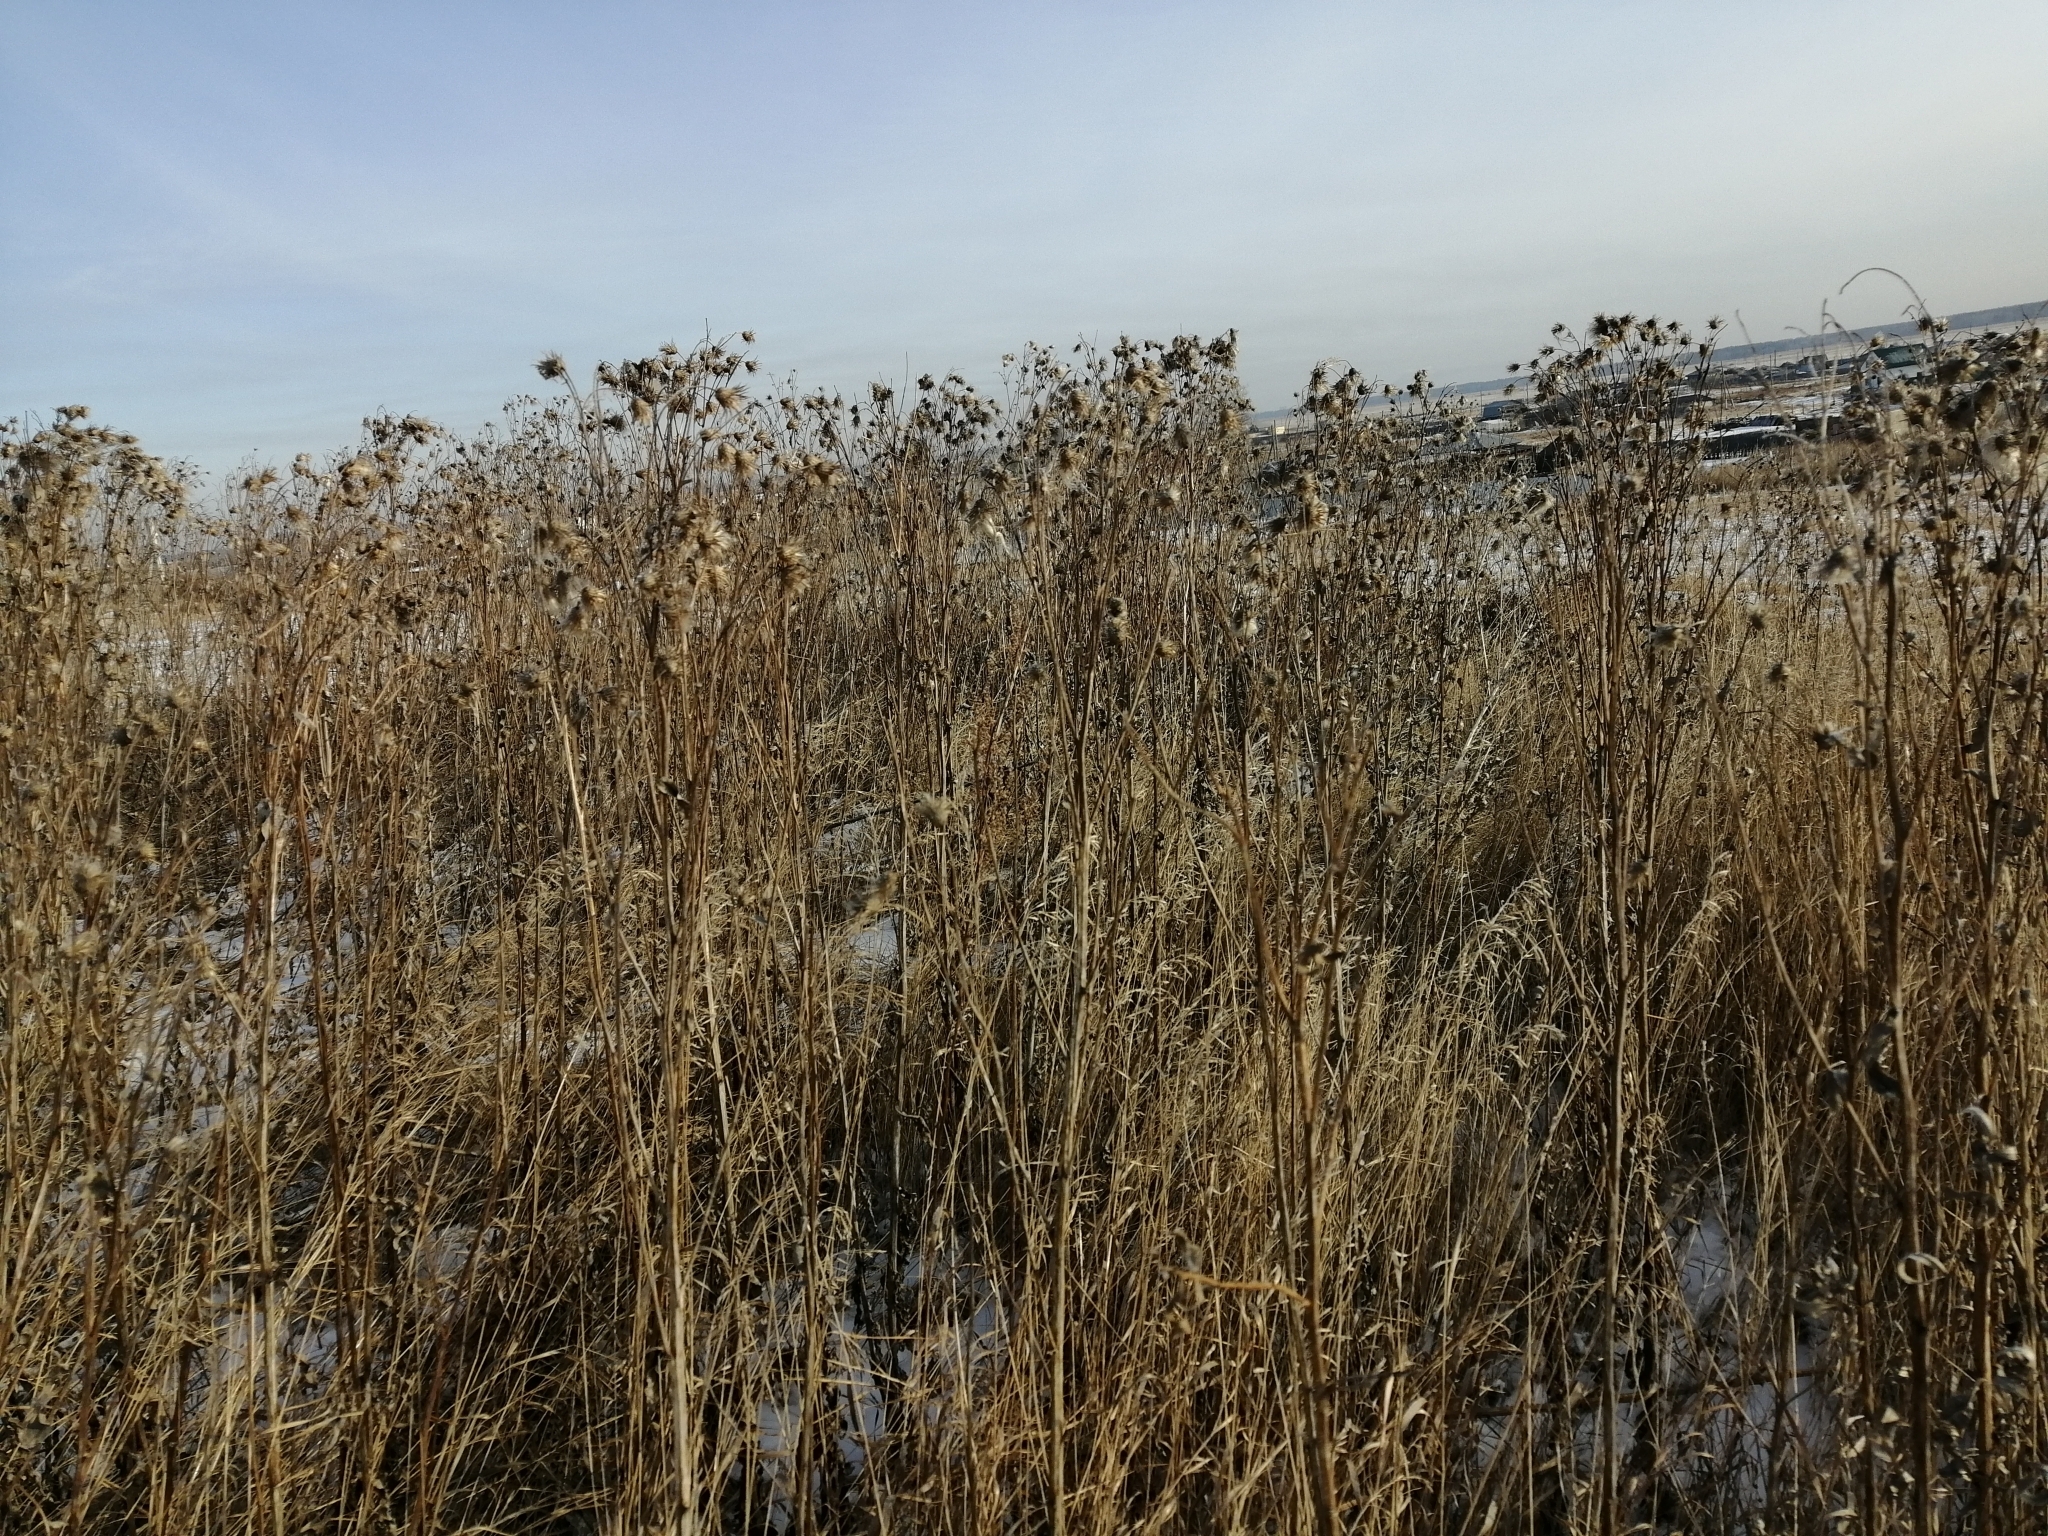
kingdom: Plantae
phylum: Tracheophyta
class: Magnoliopsida
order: Asterales
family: Asteraceae
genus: Cirsium
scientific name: Cirsium arvense
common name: Creeping thistle
